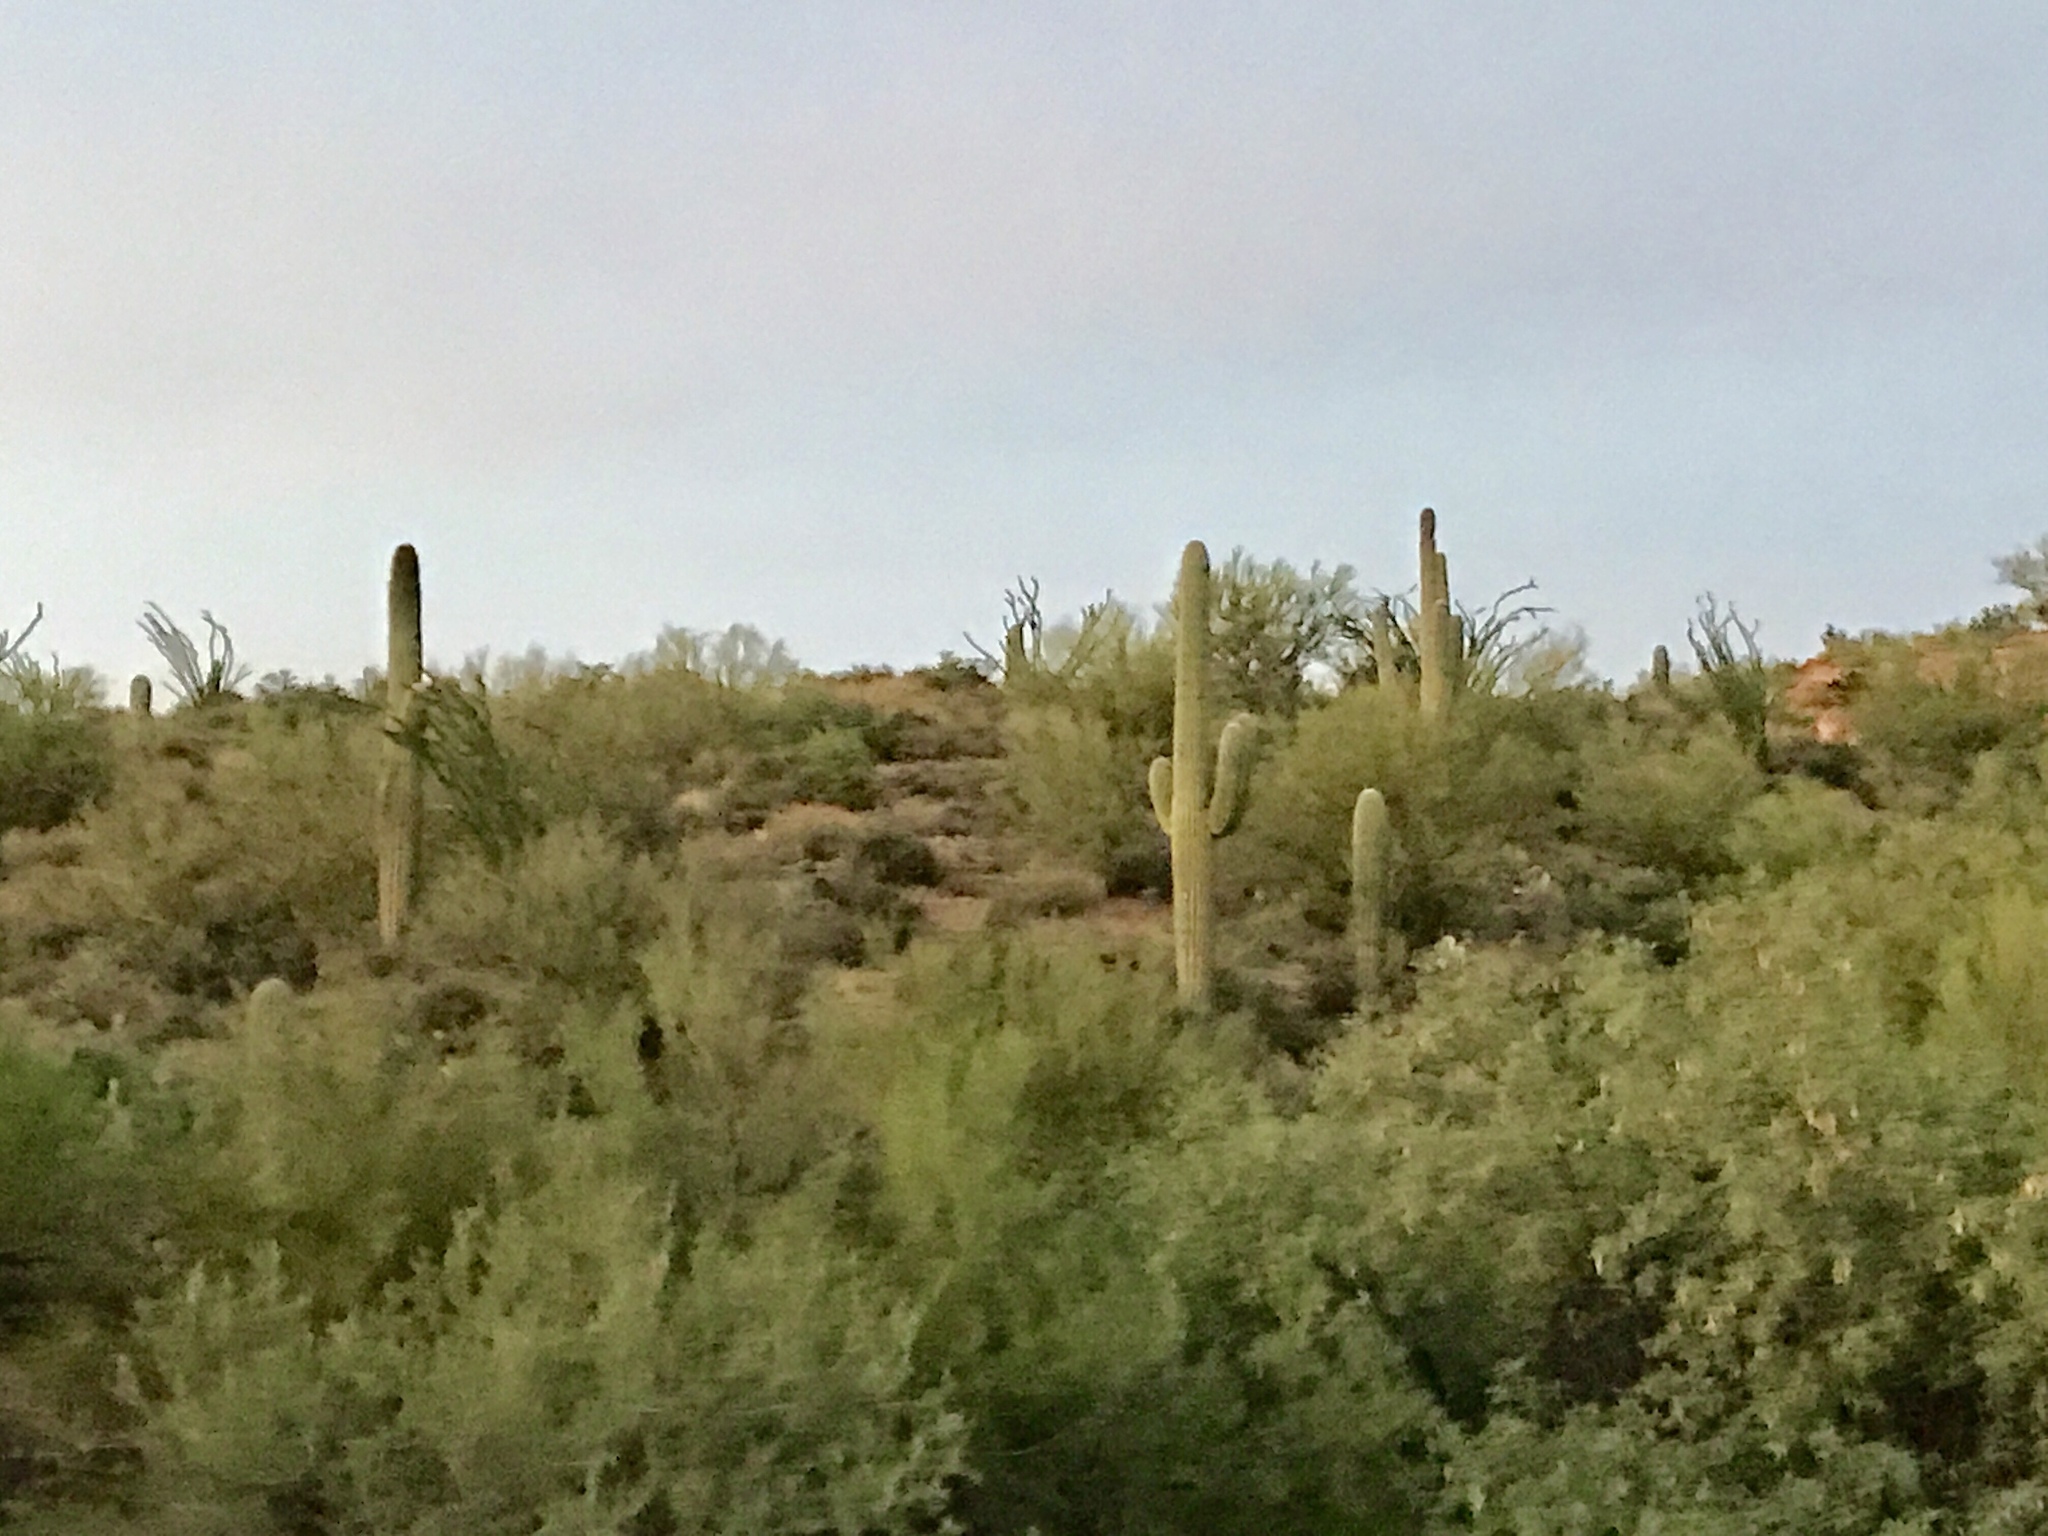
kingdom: Plantae
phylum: Tracheophyta
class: Magnoliopsida
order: Caryophyllales
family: Cactaceae
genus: Carnegiea
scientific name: Carnegiea gigantea
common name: Saguaro
